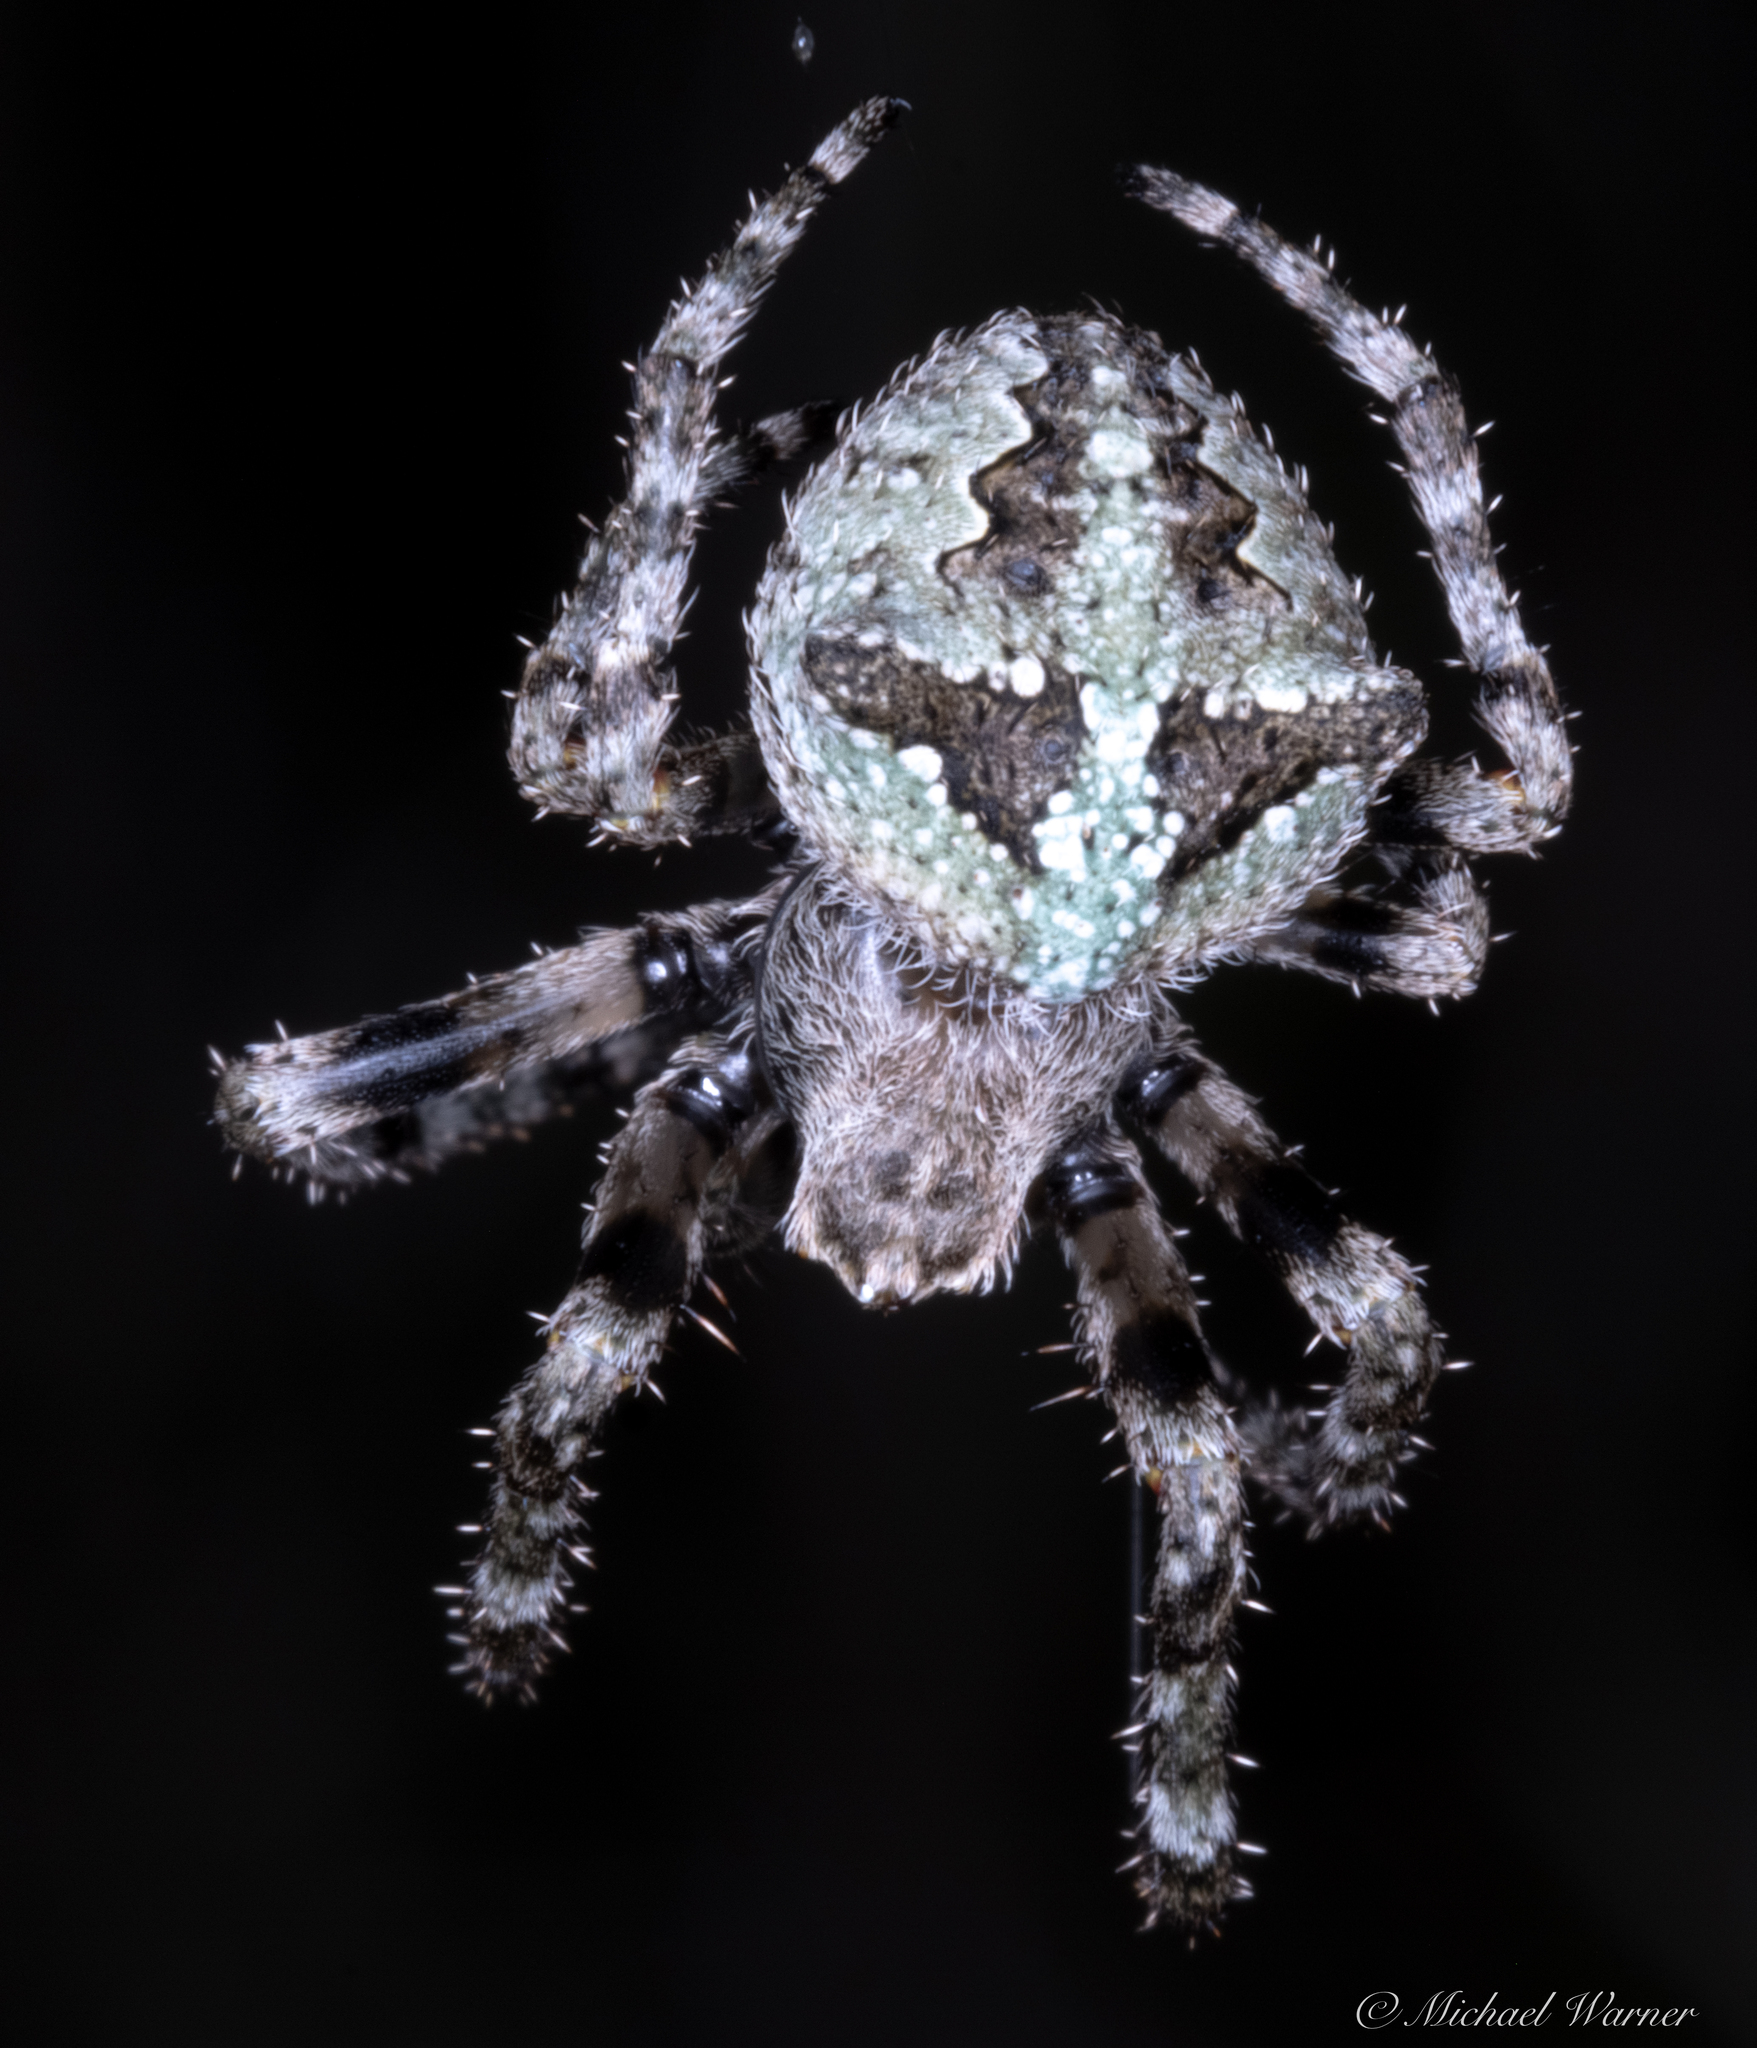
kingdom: Animalia
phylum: Arthropoda
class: Arachnida
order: Araneae
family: Araneidae
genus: Araneus
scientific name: Araneus andrewsi
